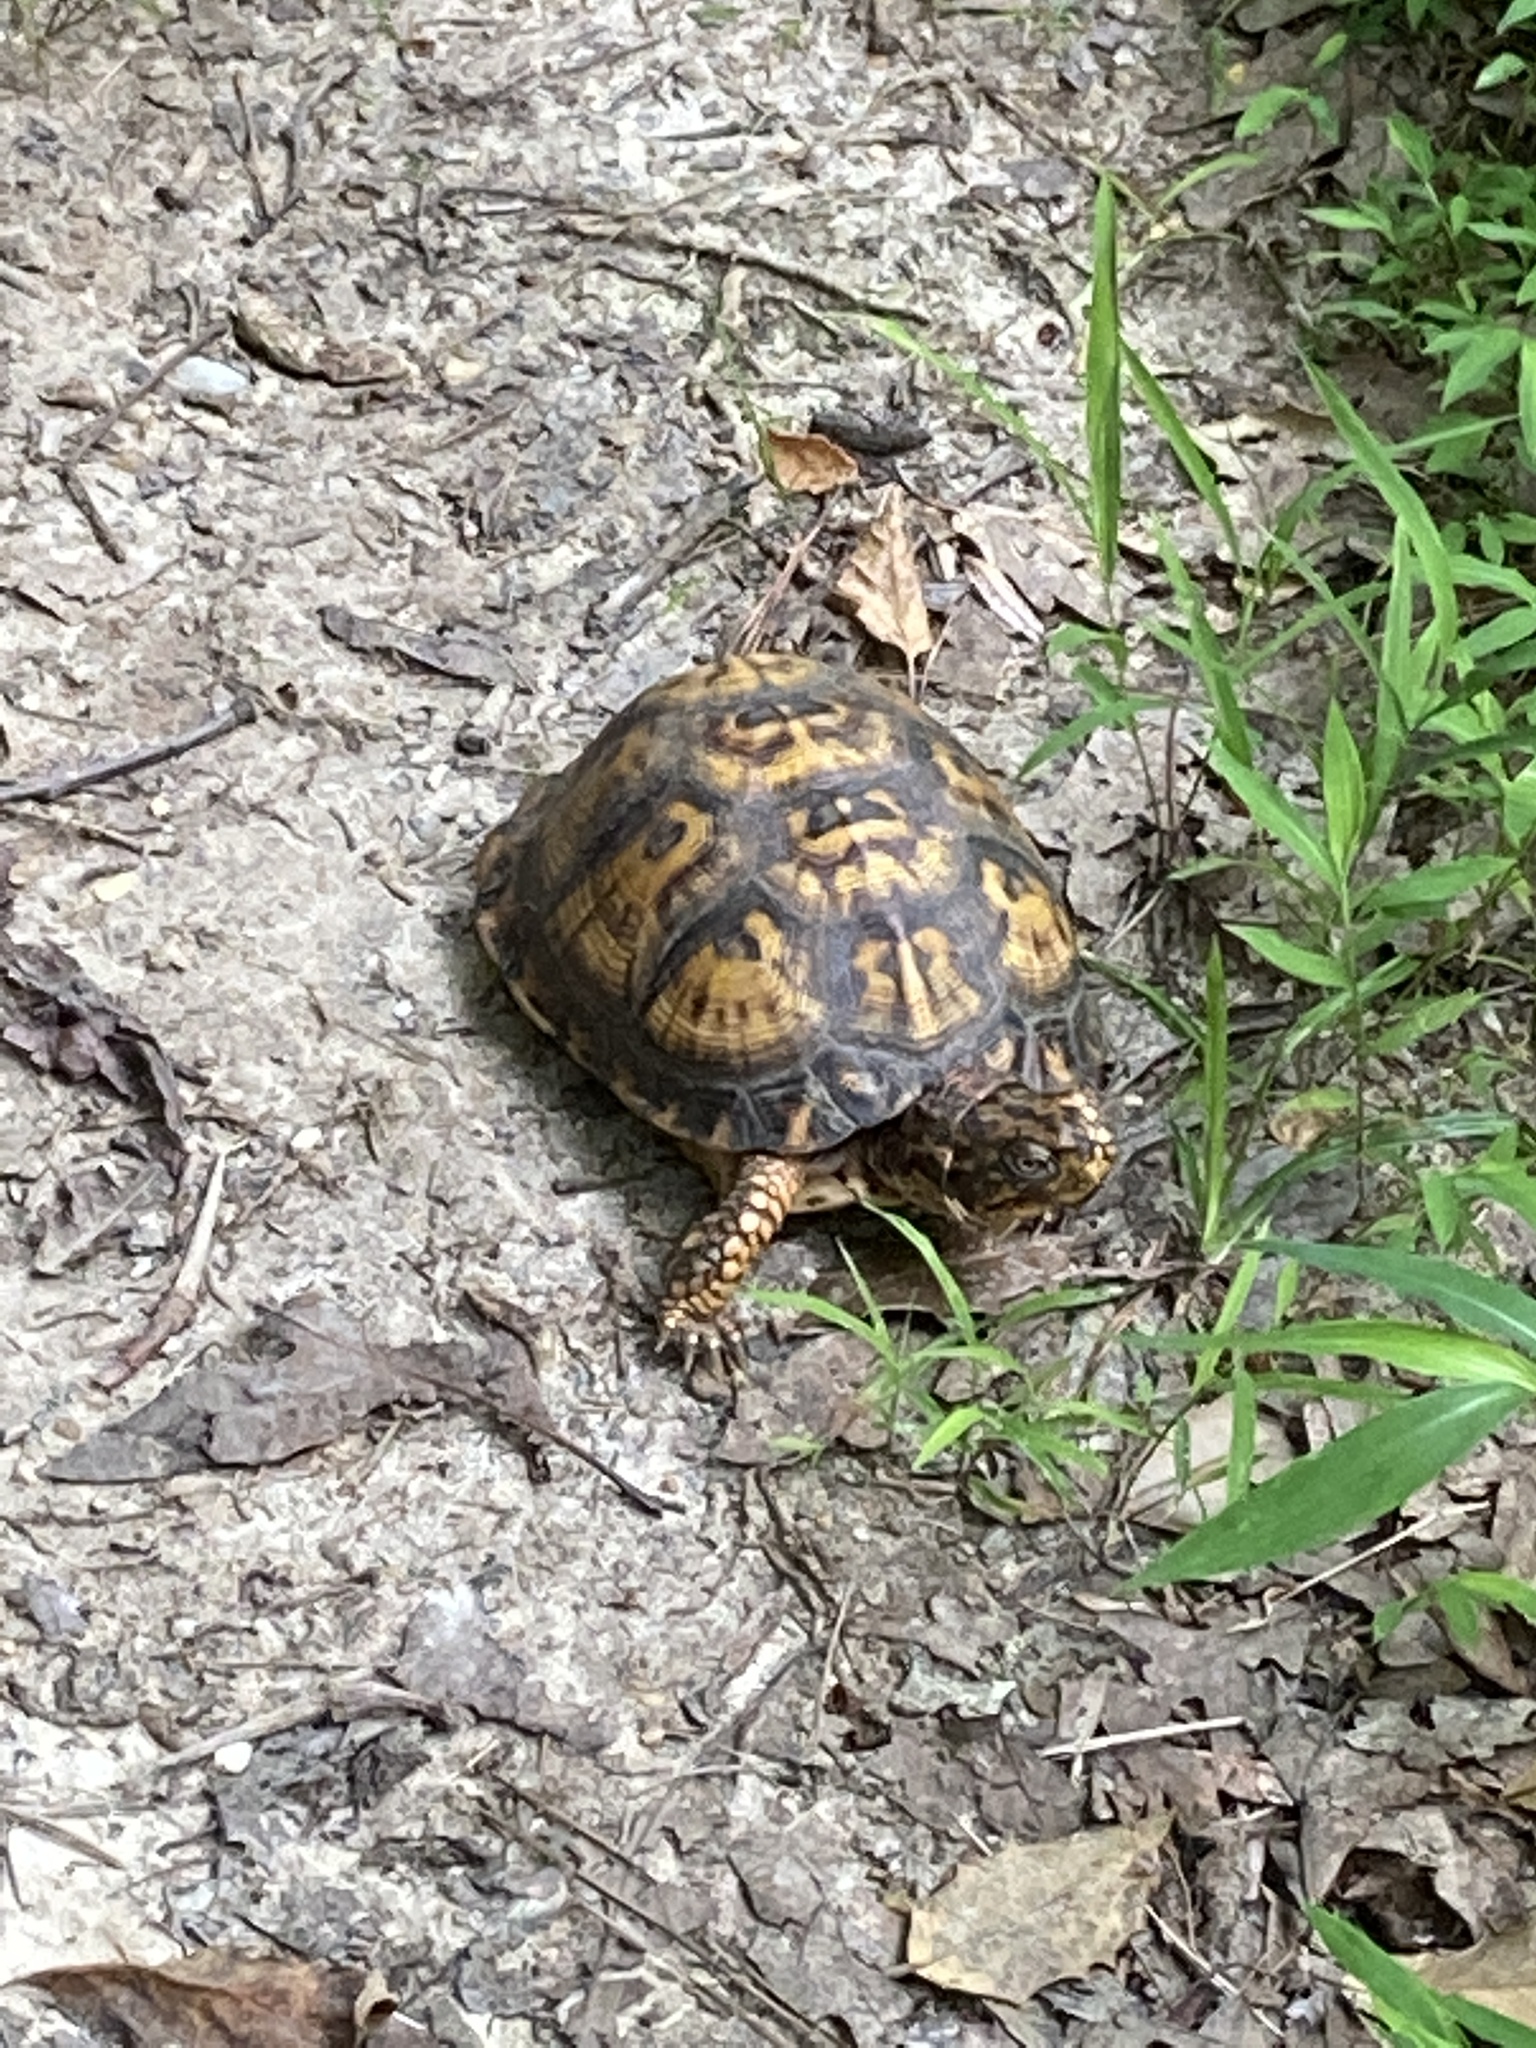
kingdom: Animalia
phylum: Chordata
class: Testudines
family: Emydidae
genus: Terrapene
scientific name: Terrapene carolina
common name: Common box turtle
